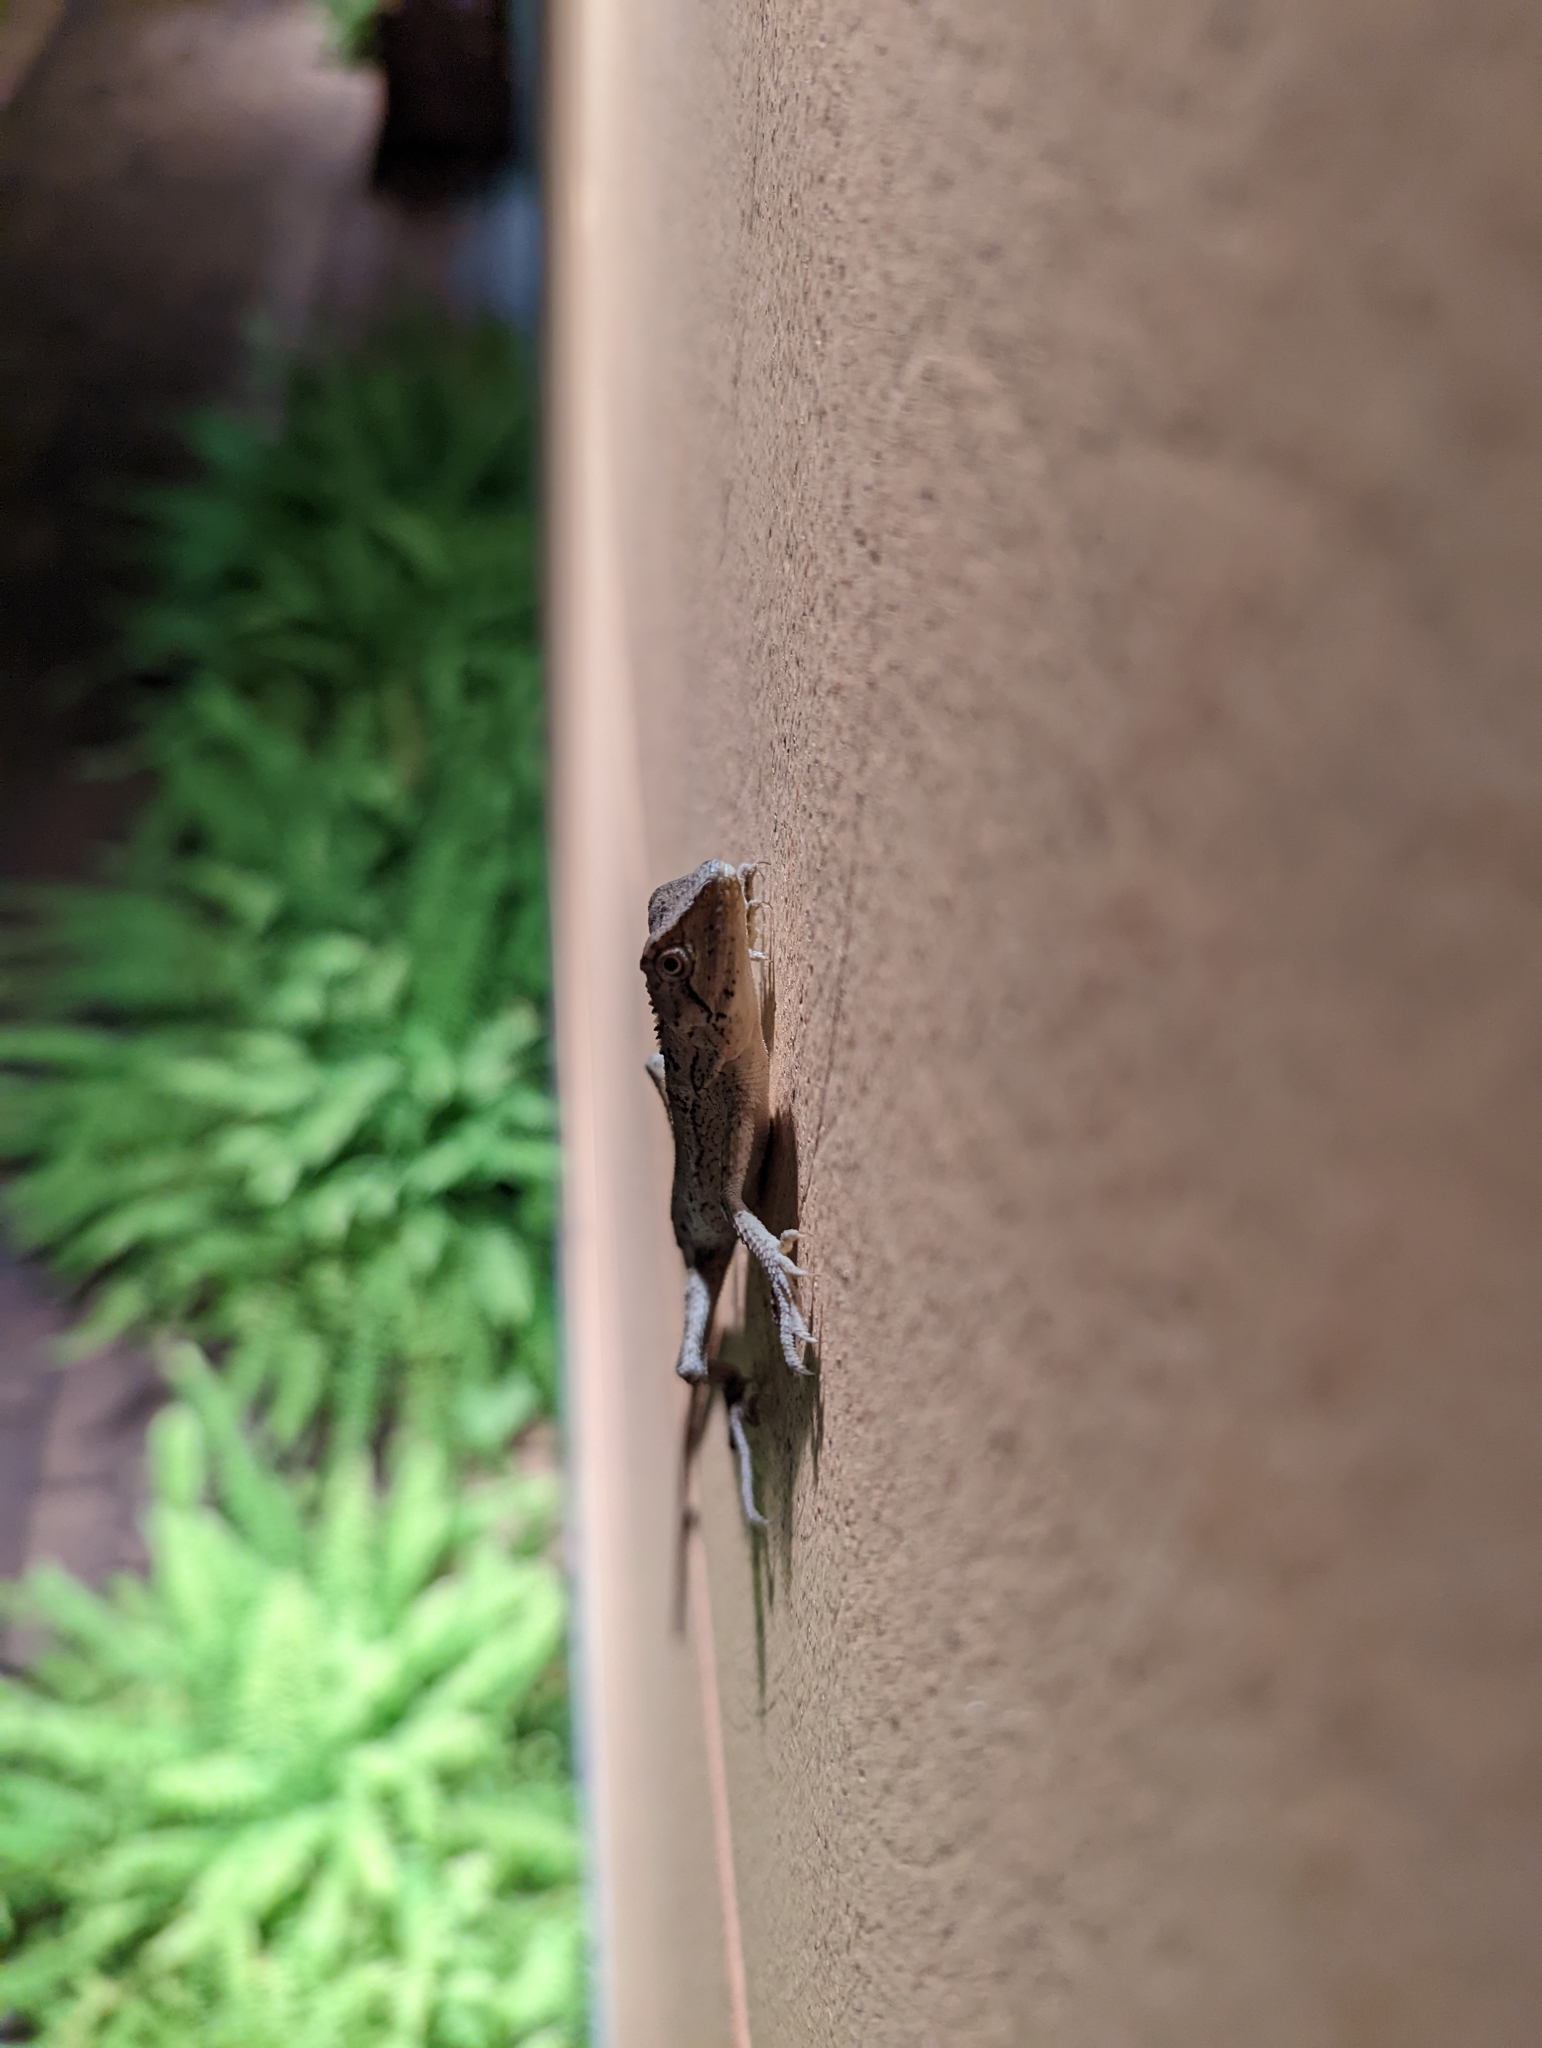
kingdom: Animalia
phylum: Chordata
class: Squamata
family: Agamidae
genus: Diploderma
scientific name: Diploderma swinhonis
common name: Taiwan japalure
